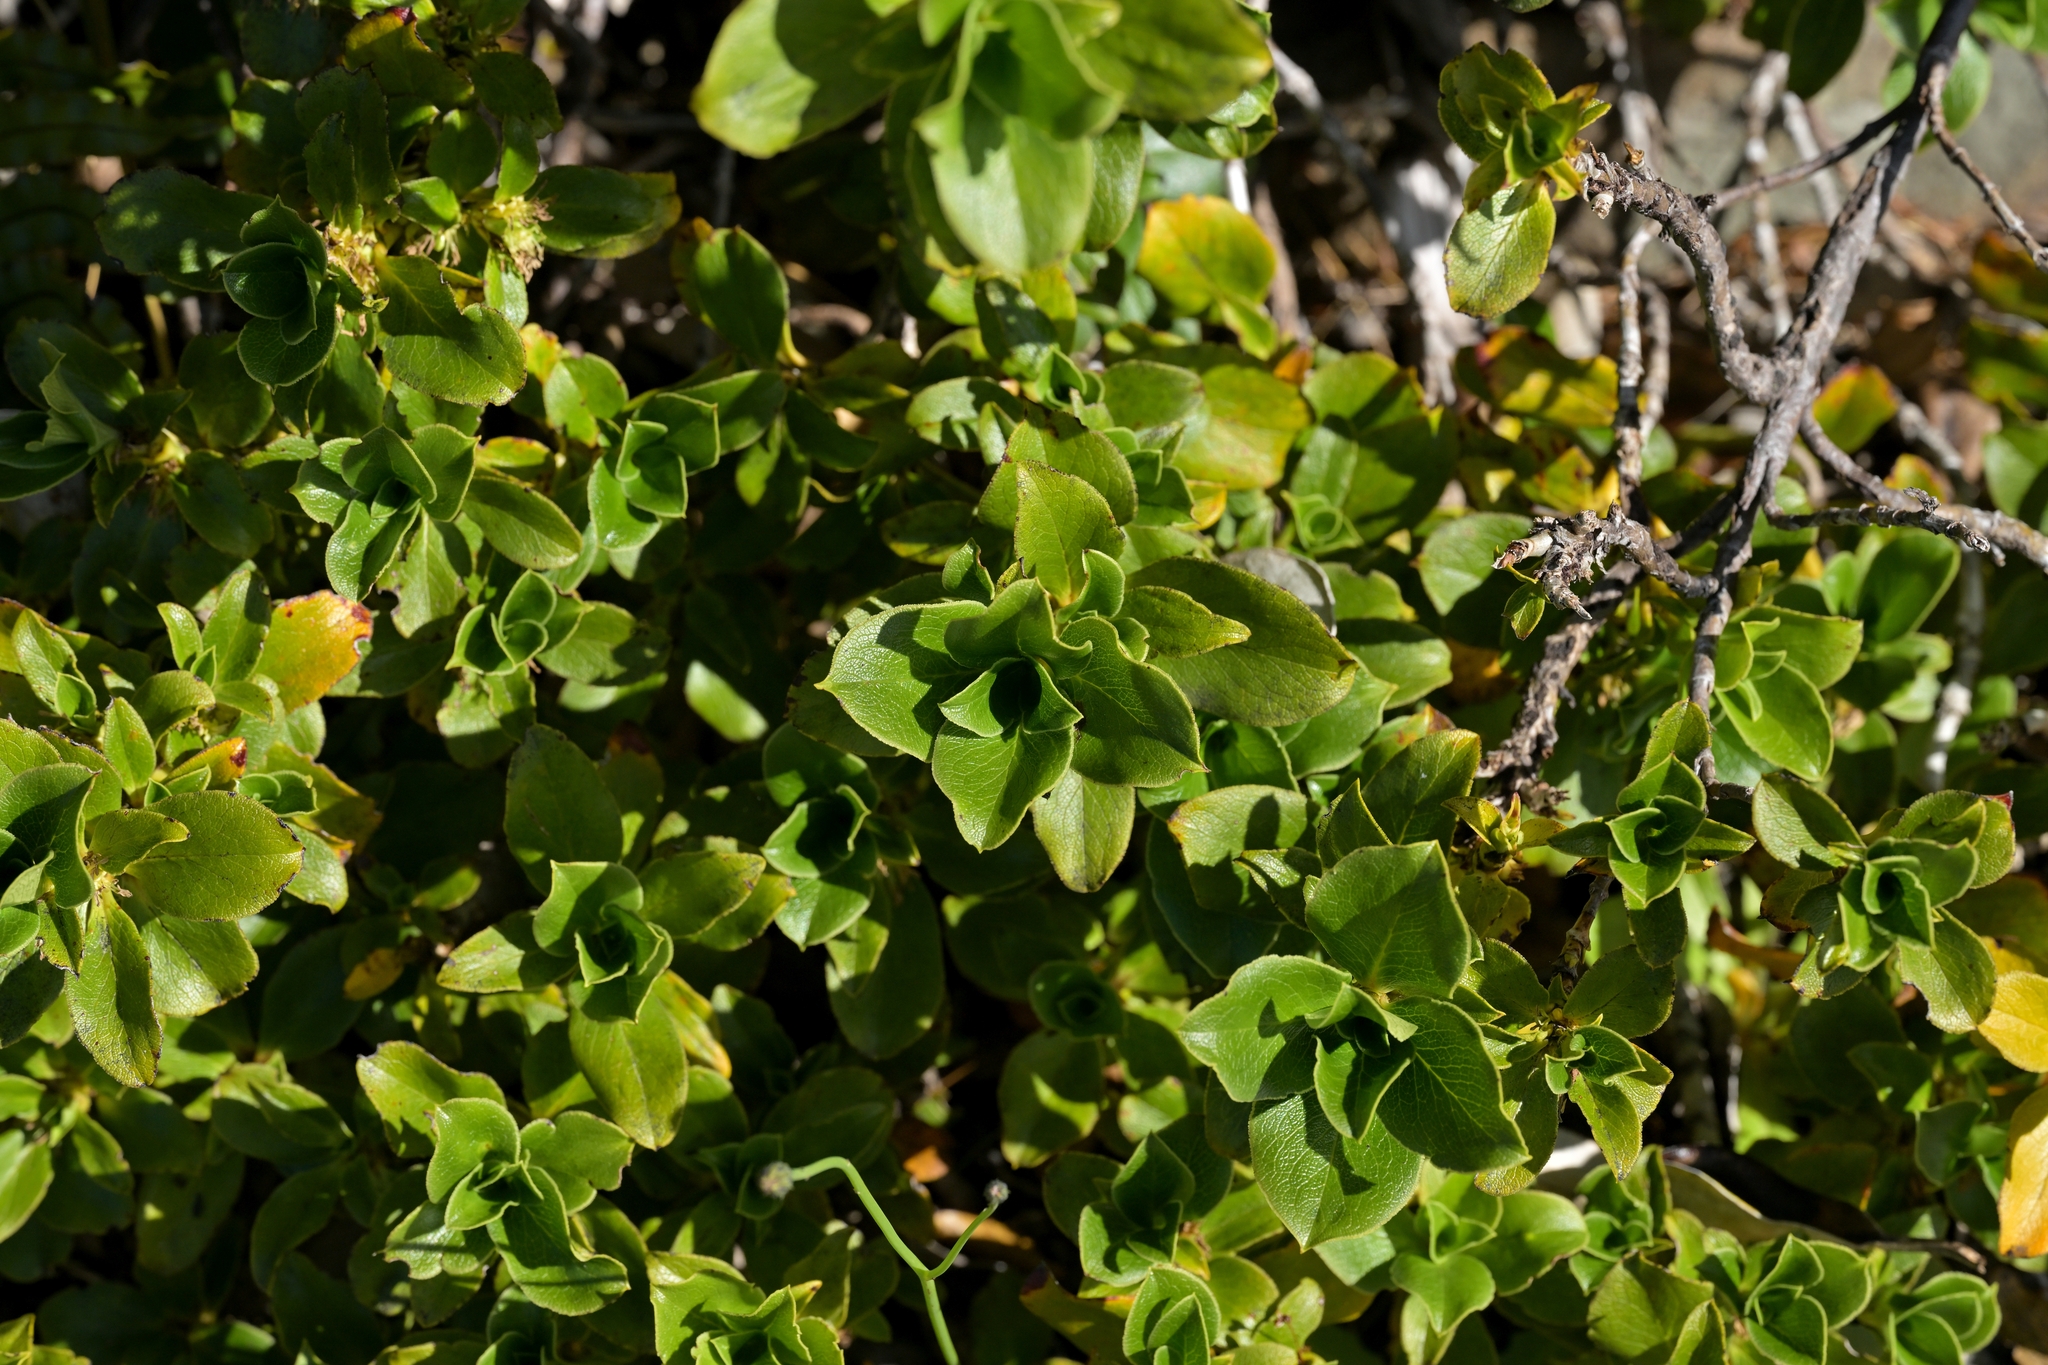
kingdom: Plantae
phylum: Tracheophyta
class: Magnoliopsida
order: Gentianales
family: Rubiaceae
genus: Coprosma
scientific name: Coprosma serrulata
